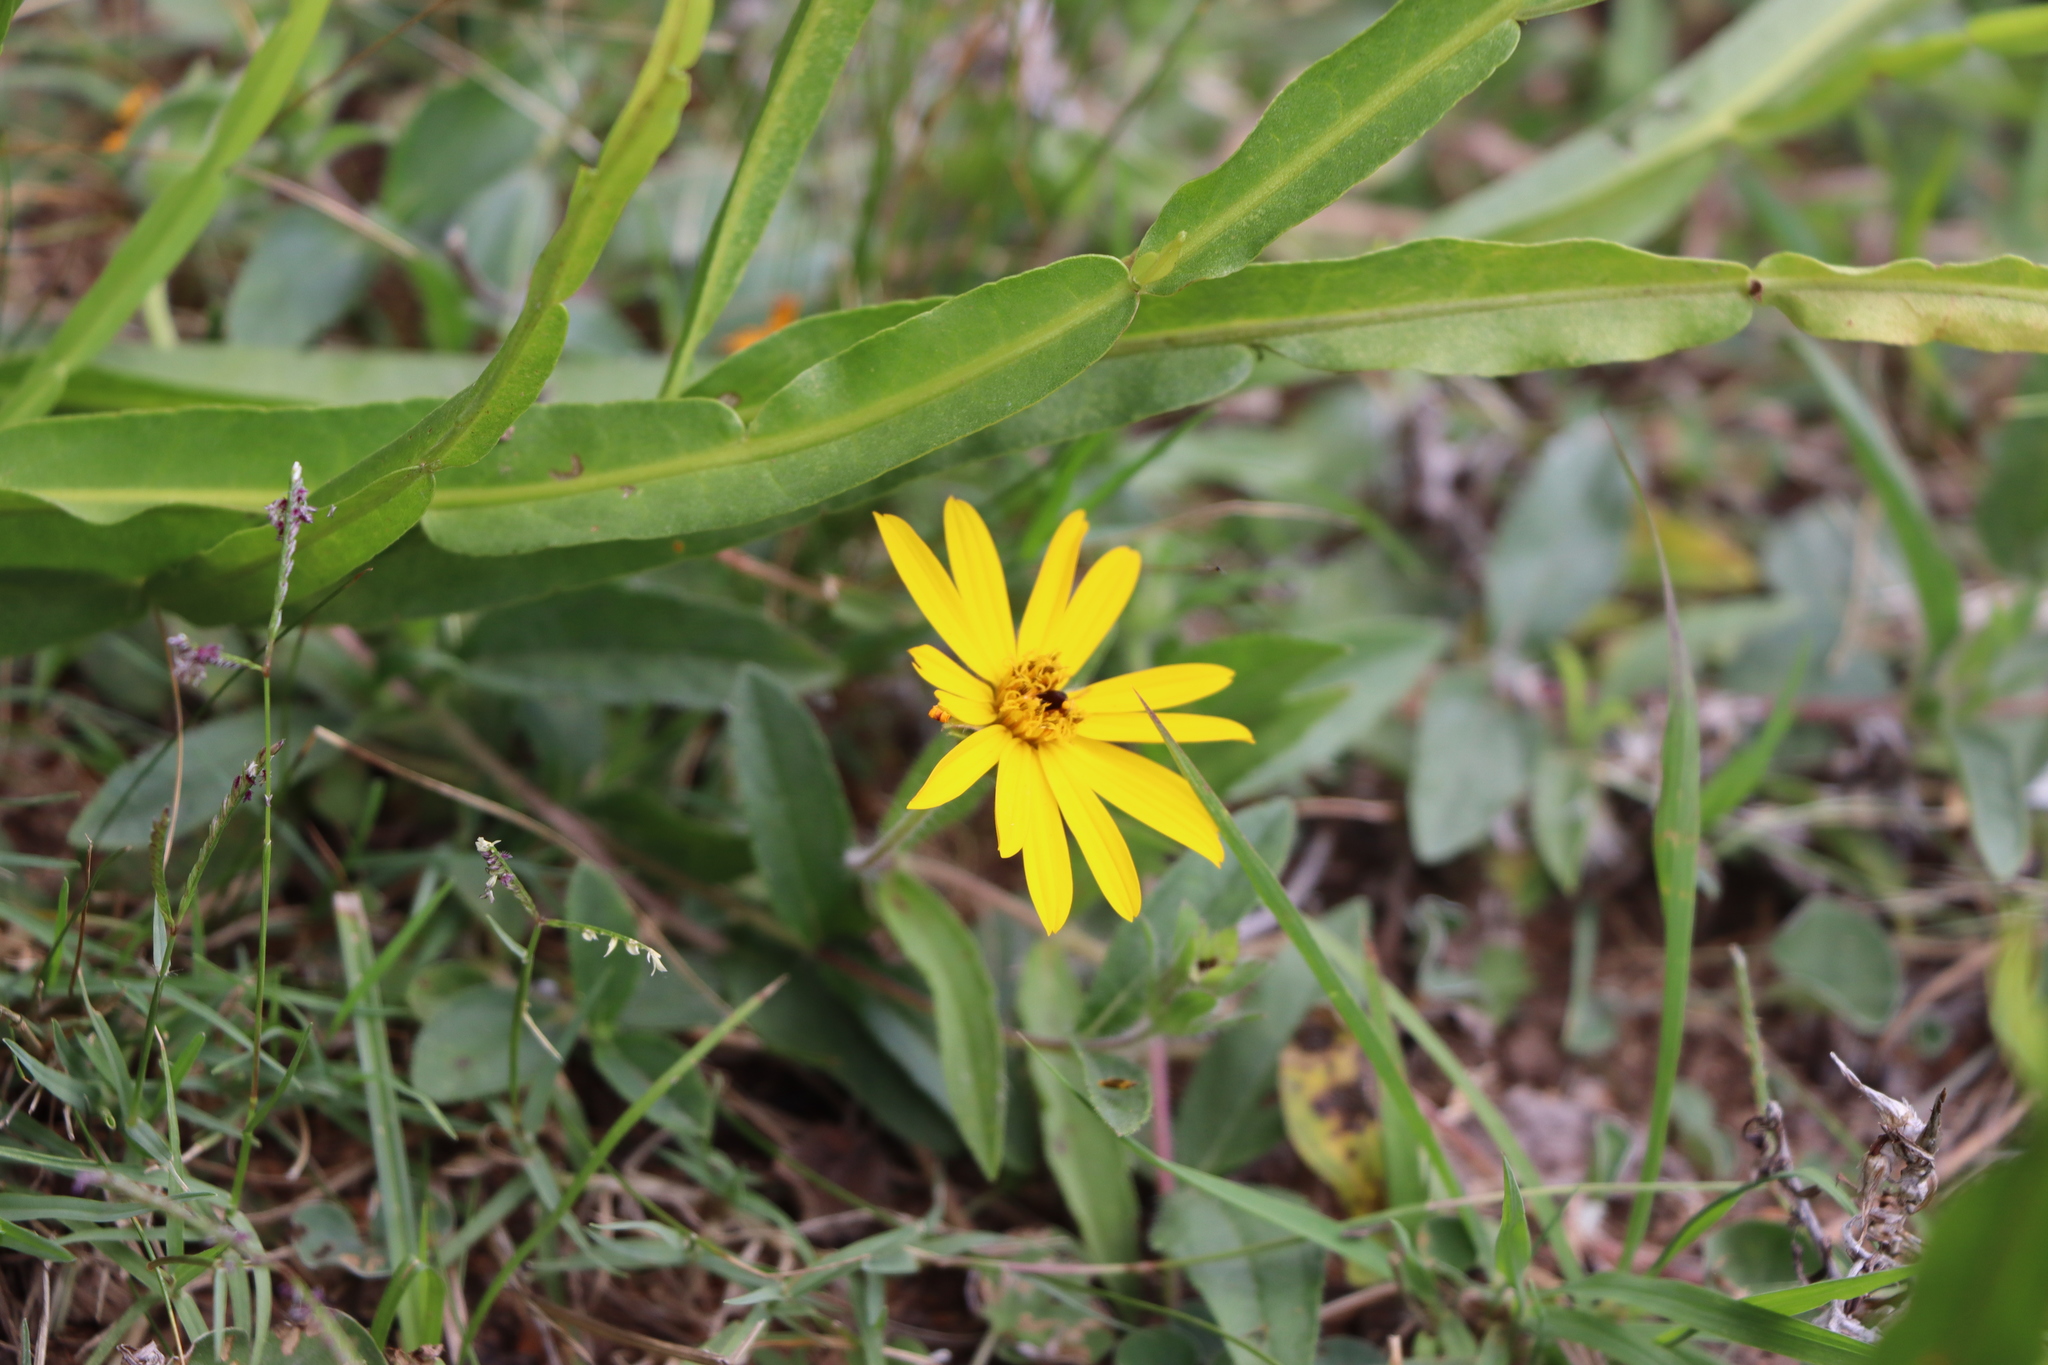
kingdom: Plantae
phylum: Tracheophyta
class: Magnoliopsida
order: Asterales
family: Asteraceae
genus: Wedelia
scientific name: Wedelia montevidensis
